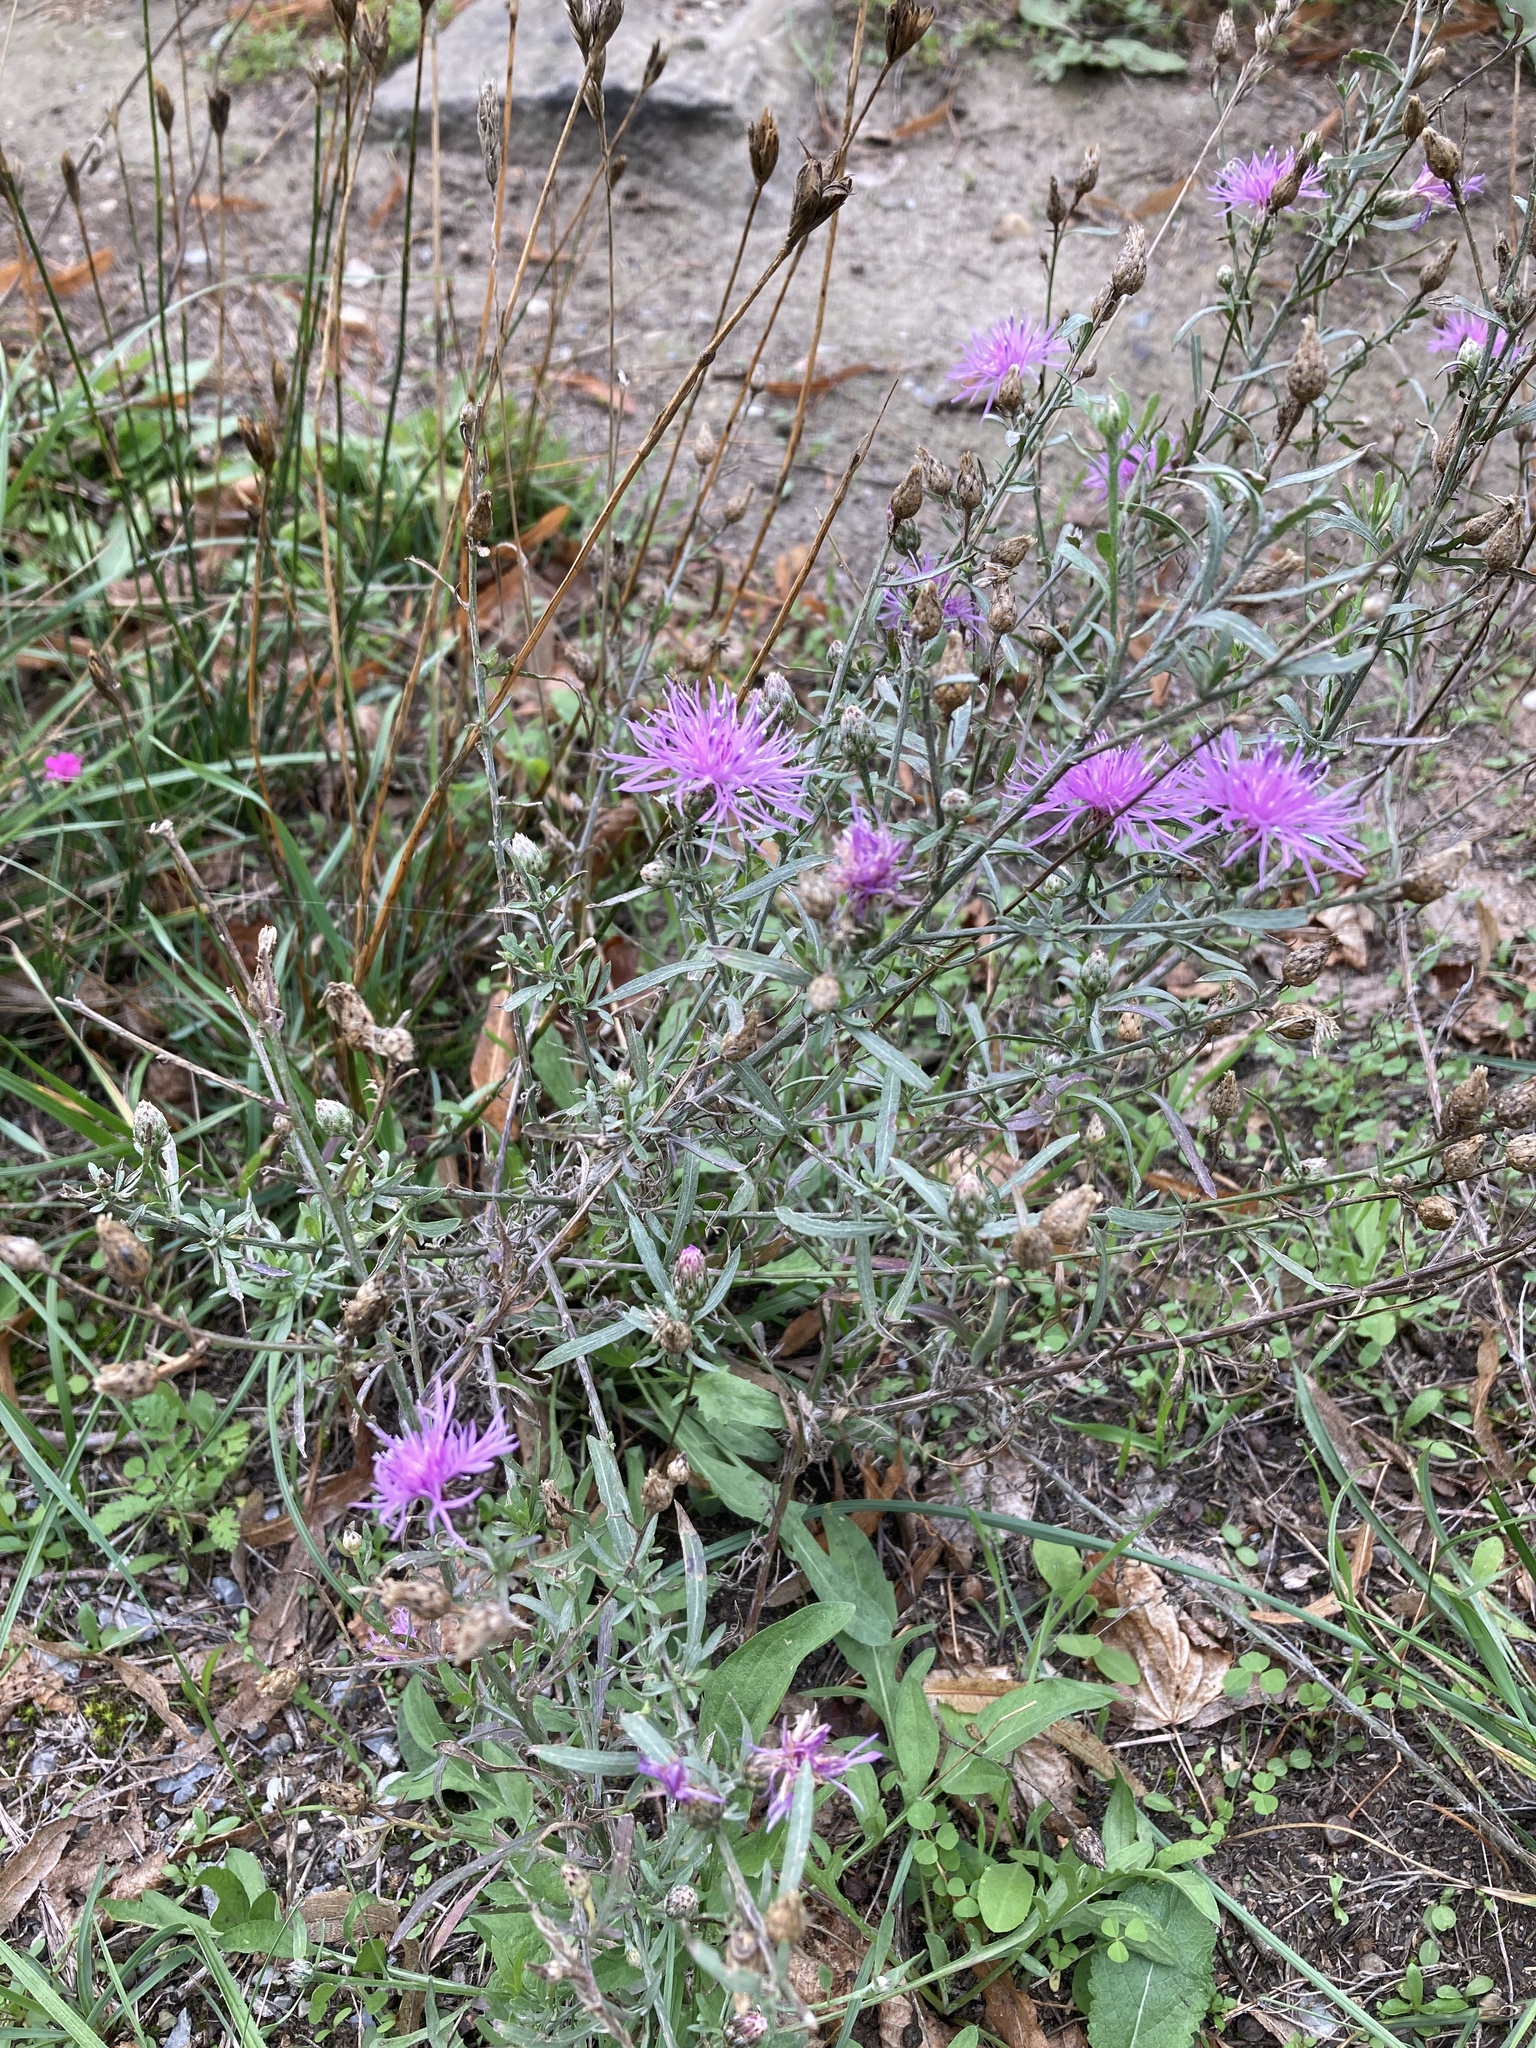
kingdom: Plantae
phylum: Tracheophyta
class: Magnoliopsida
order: Asterales
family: Asteraceae
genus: Centaurea
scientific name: Centaurea stoebe
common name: Spotted knapweed
